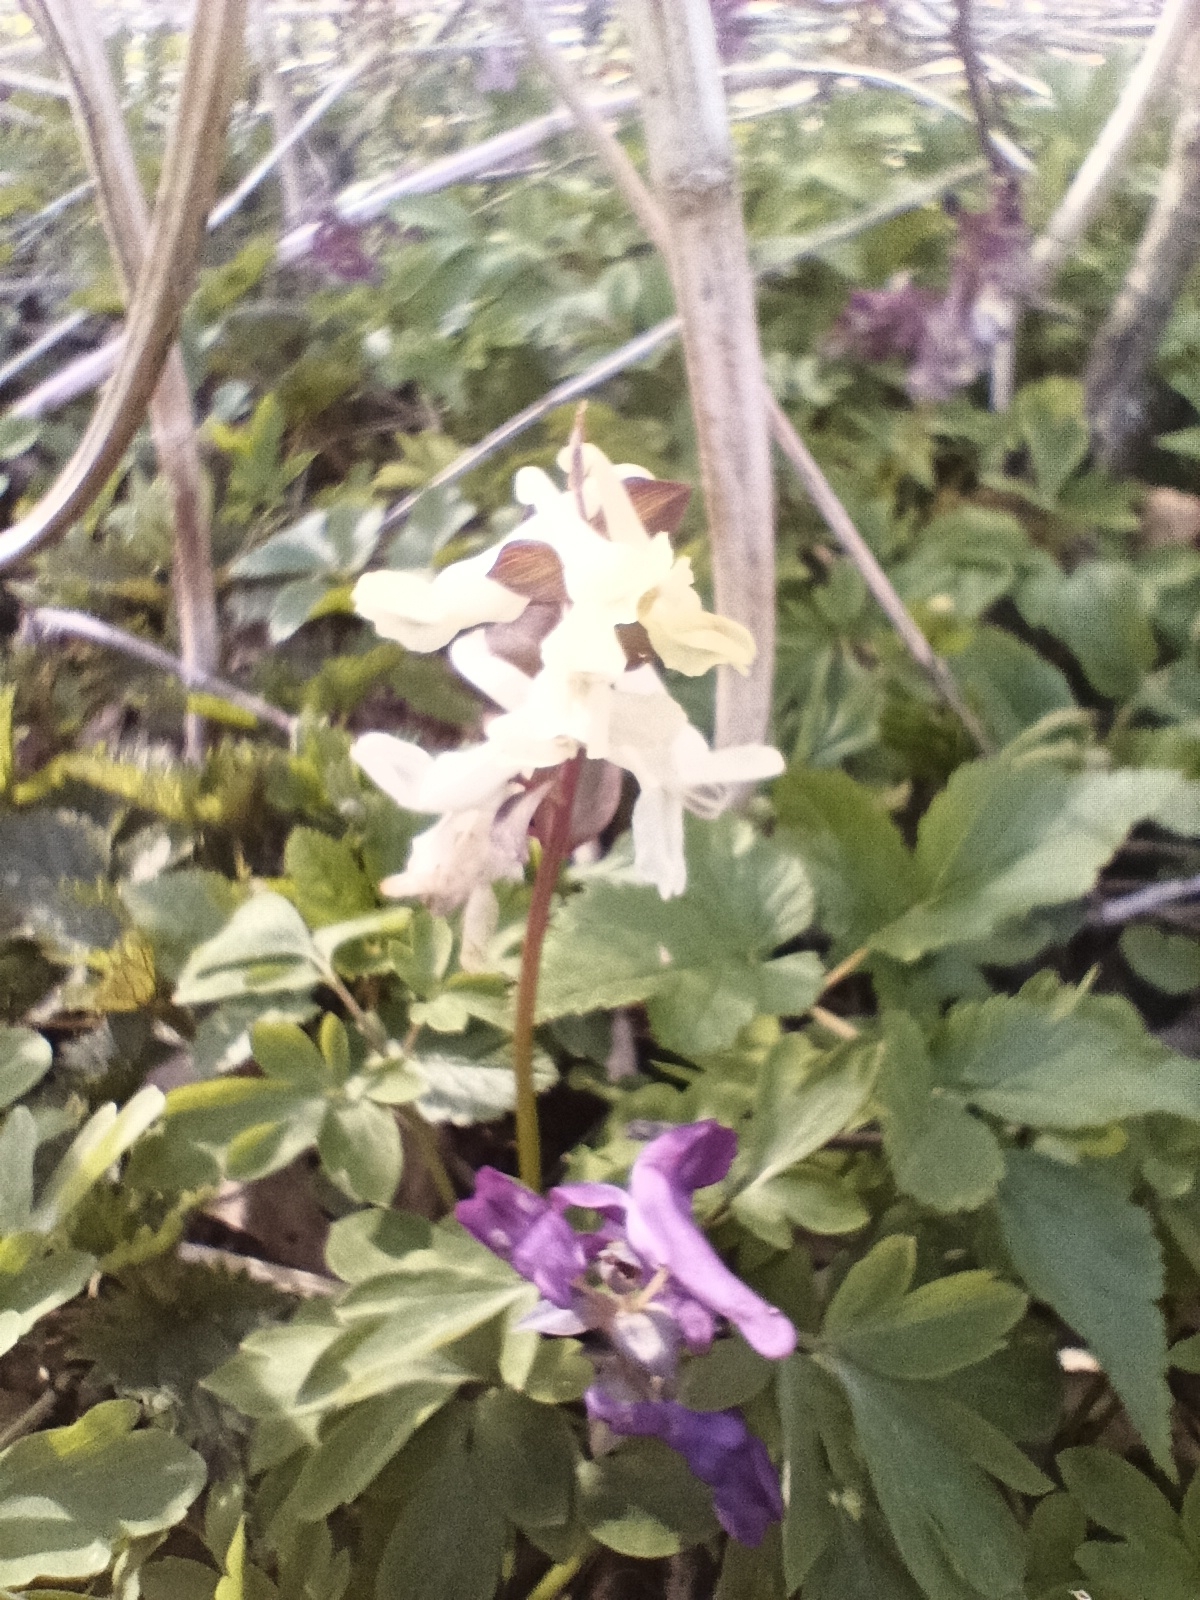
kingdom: Plantae
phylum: Tracheophyta
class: Magnoliopsida
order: Ranunculales
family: Papaveraceae
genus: Corydalis
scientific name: Corydalis cava
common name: Hollowroot
